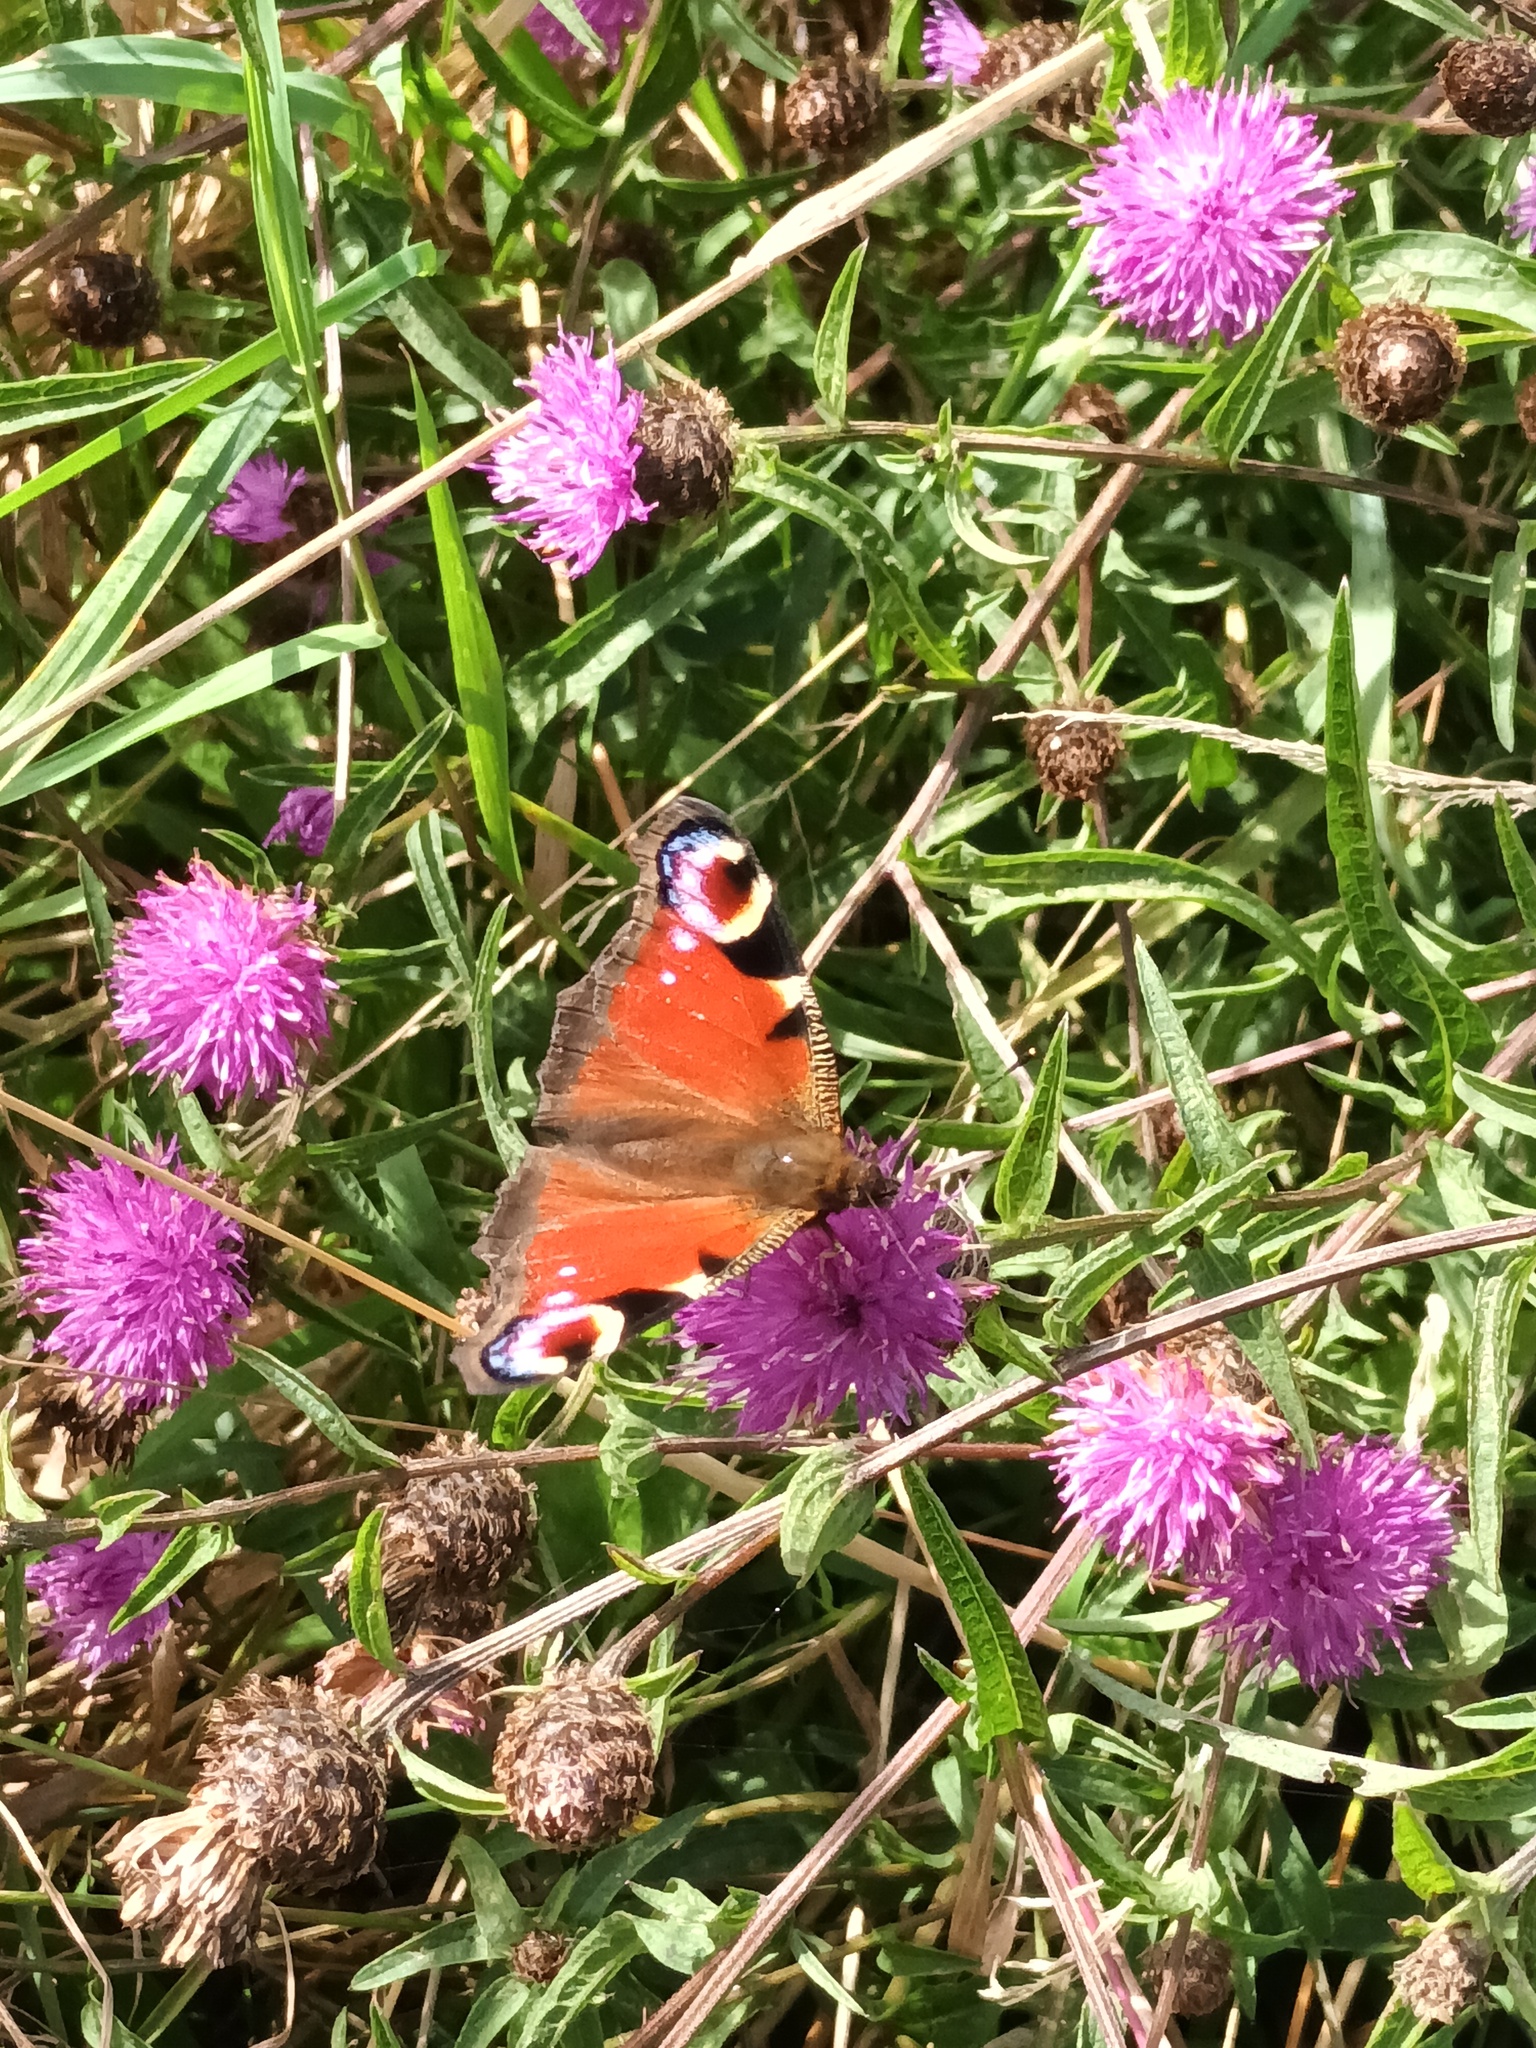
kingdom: Animalia
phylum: Arthropoda
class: Insecta
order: Lepidoptera
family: Nymphalidae
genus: Aglais
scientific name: Aglais io
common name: Peacock
